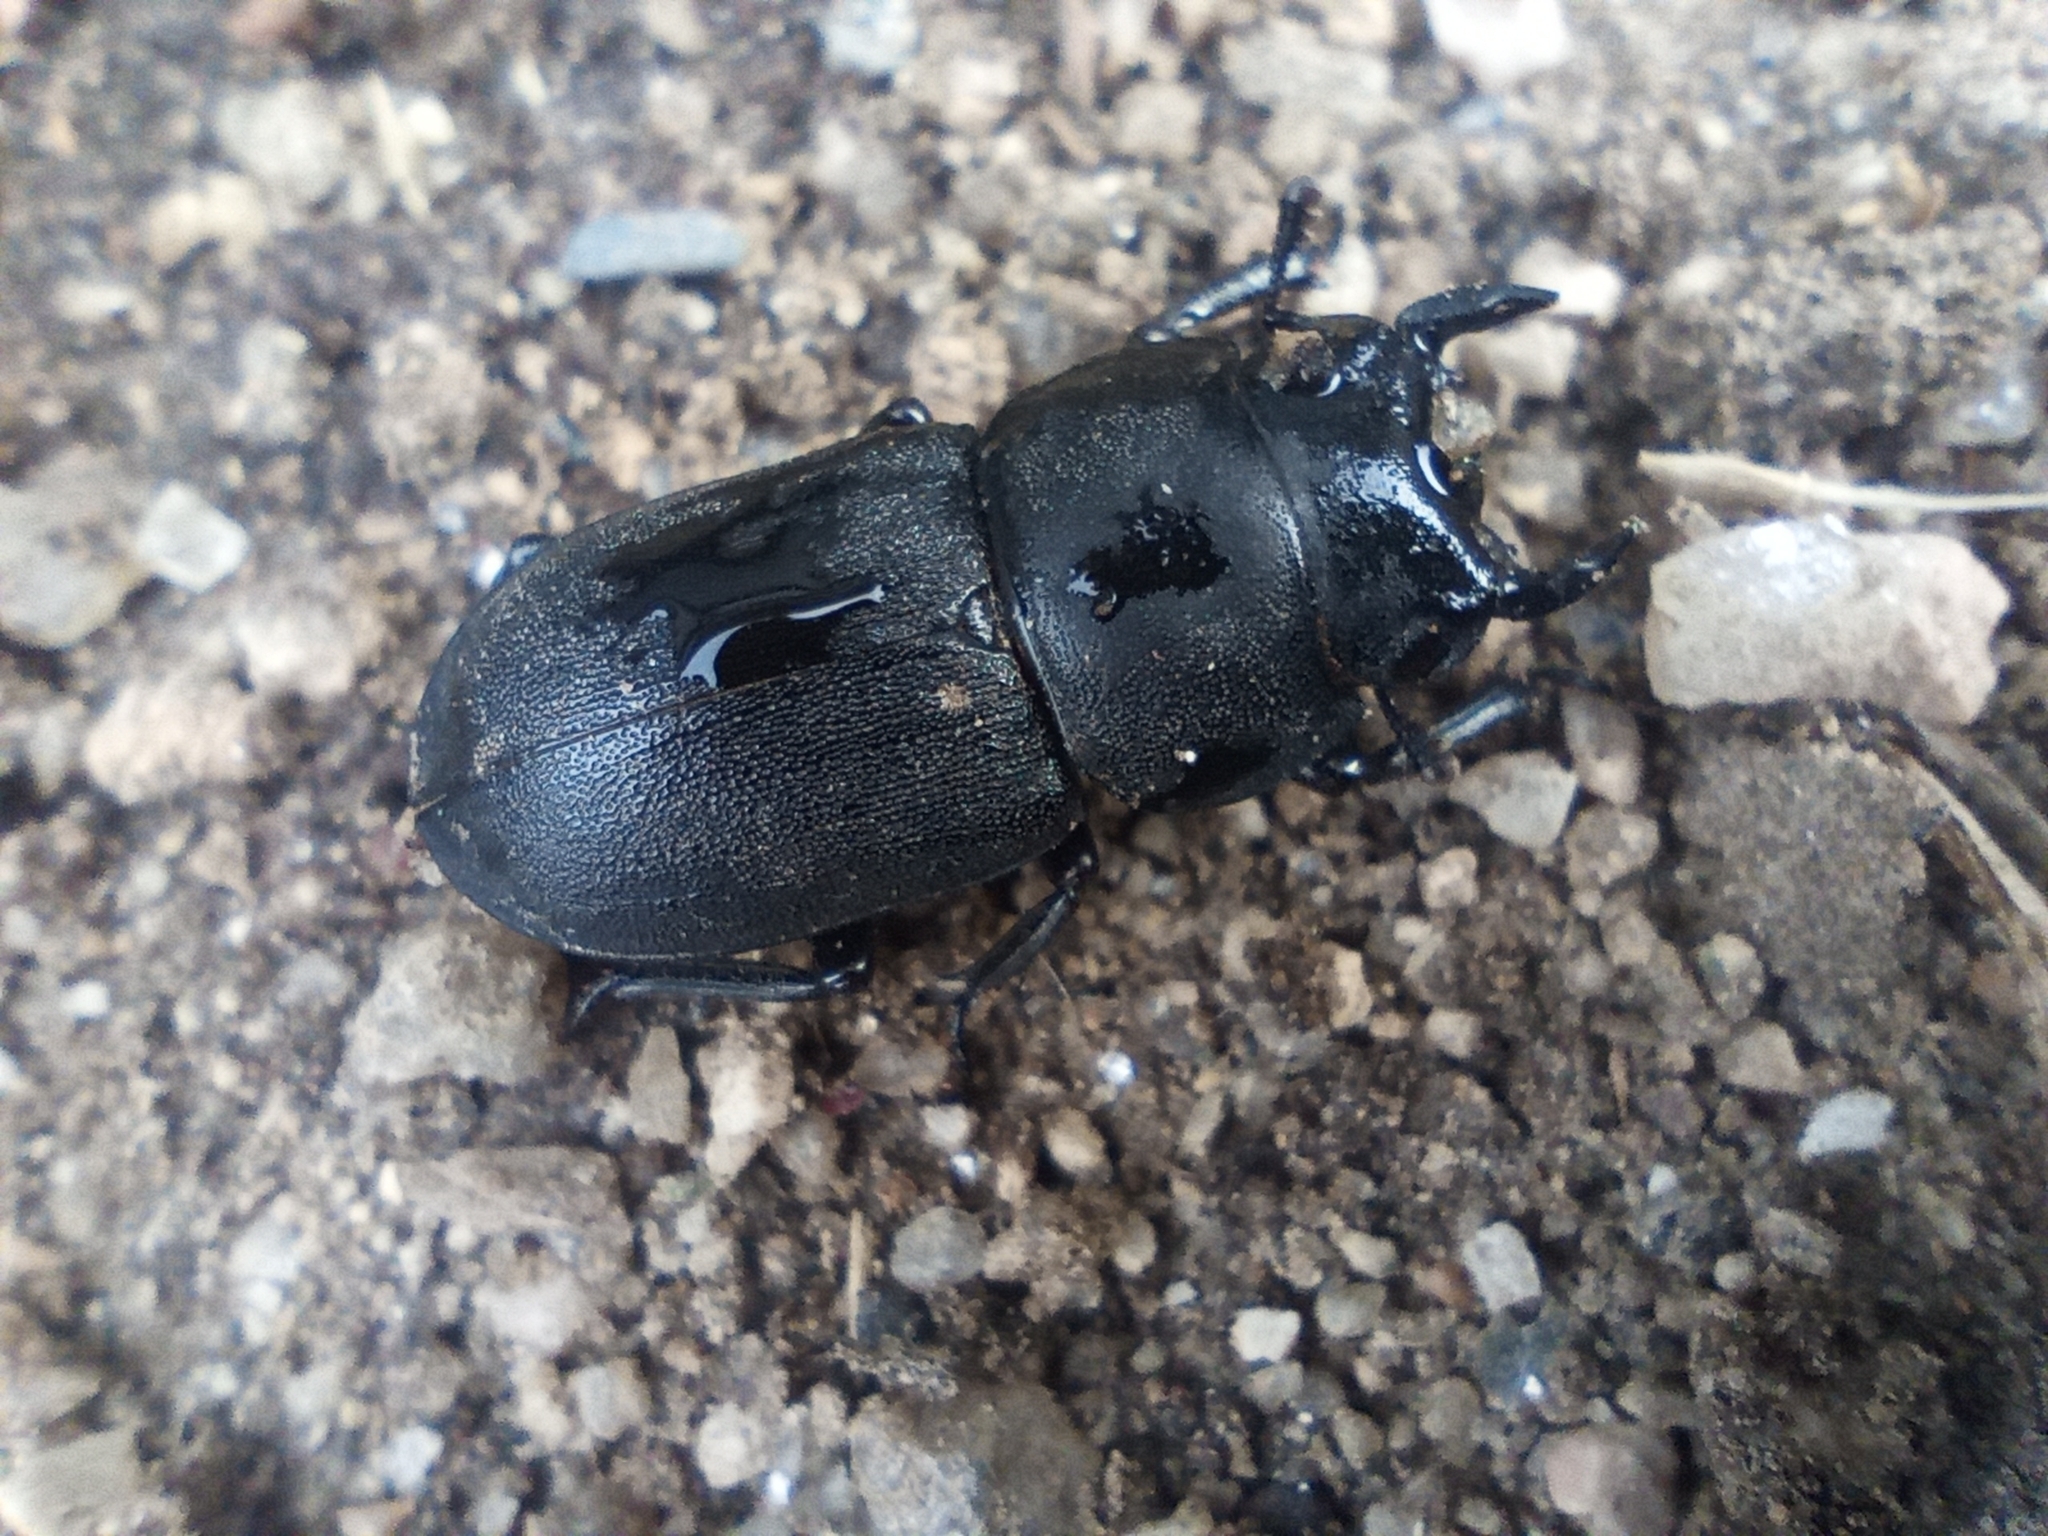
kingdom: Animalia
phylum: Arthropoda
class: Insecta
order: Coleoptera
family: Lucanidae
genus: Dorcus
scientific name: Dorcus parallelipipedus
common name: Lesser stag beetle
